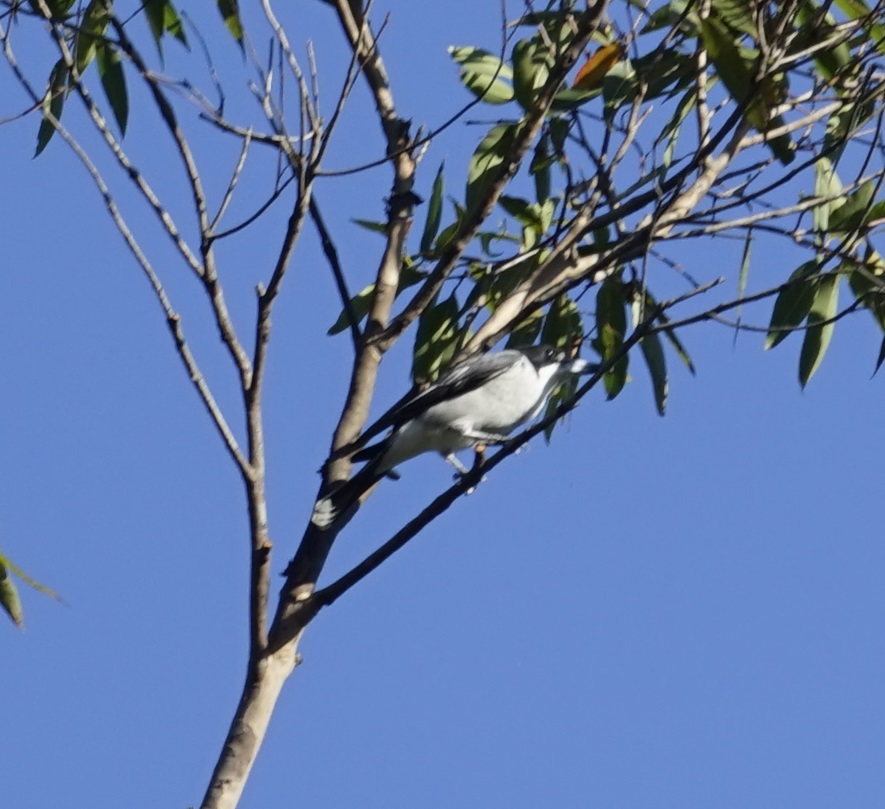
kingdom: Animalia
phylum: Chordata
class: Aves
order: Passeriformes
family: Cracticidae
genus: Cracticus
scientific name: Cracticus torquatus
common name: Grey butcherbird
